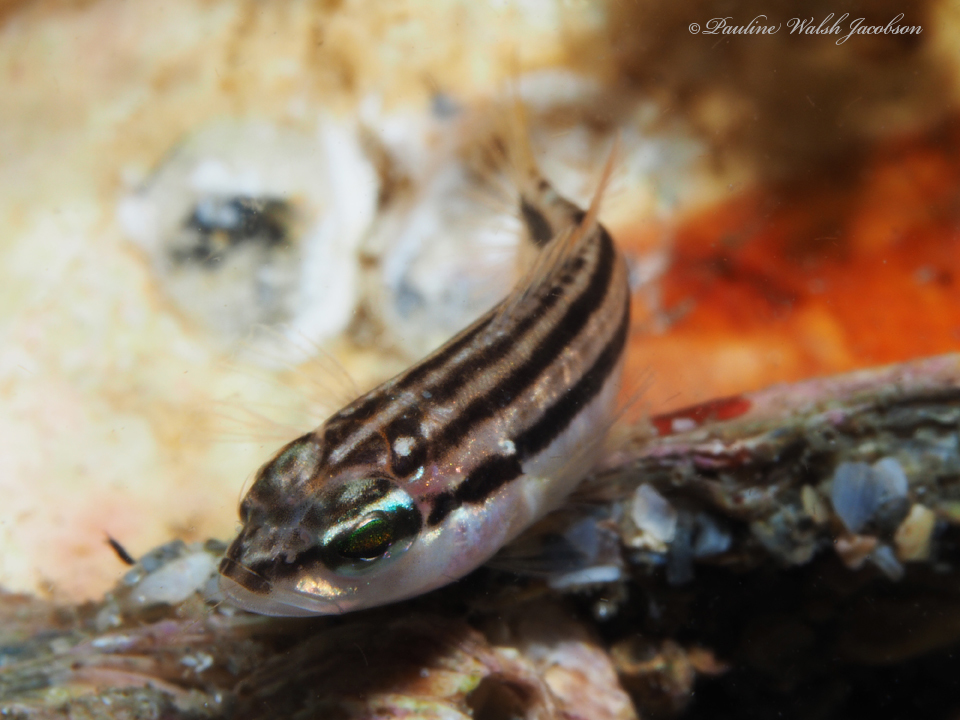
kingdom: Animalia
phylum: Chordata
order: Perciformes
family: Serranidae
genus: Diplectrum
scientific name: Diplectrum formosum
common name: Sand perch
